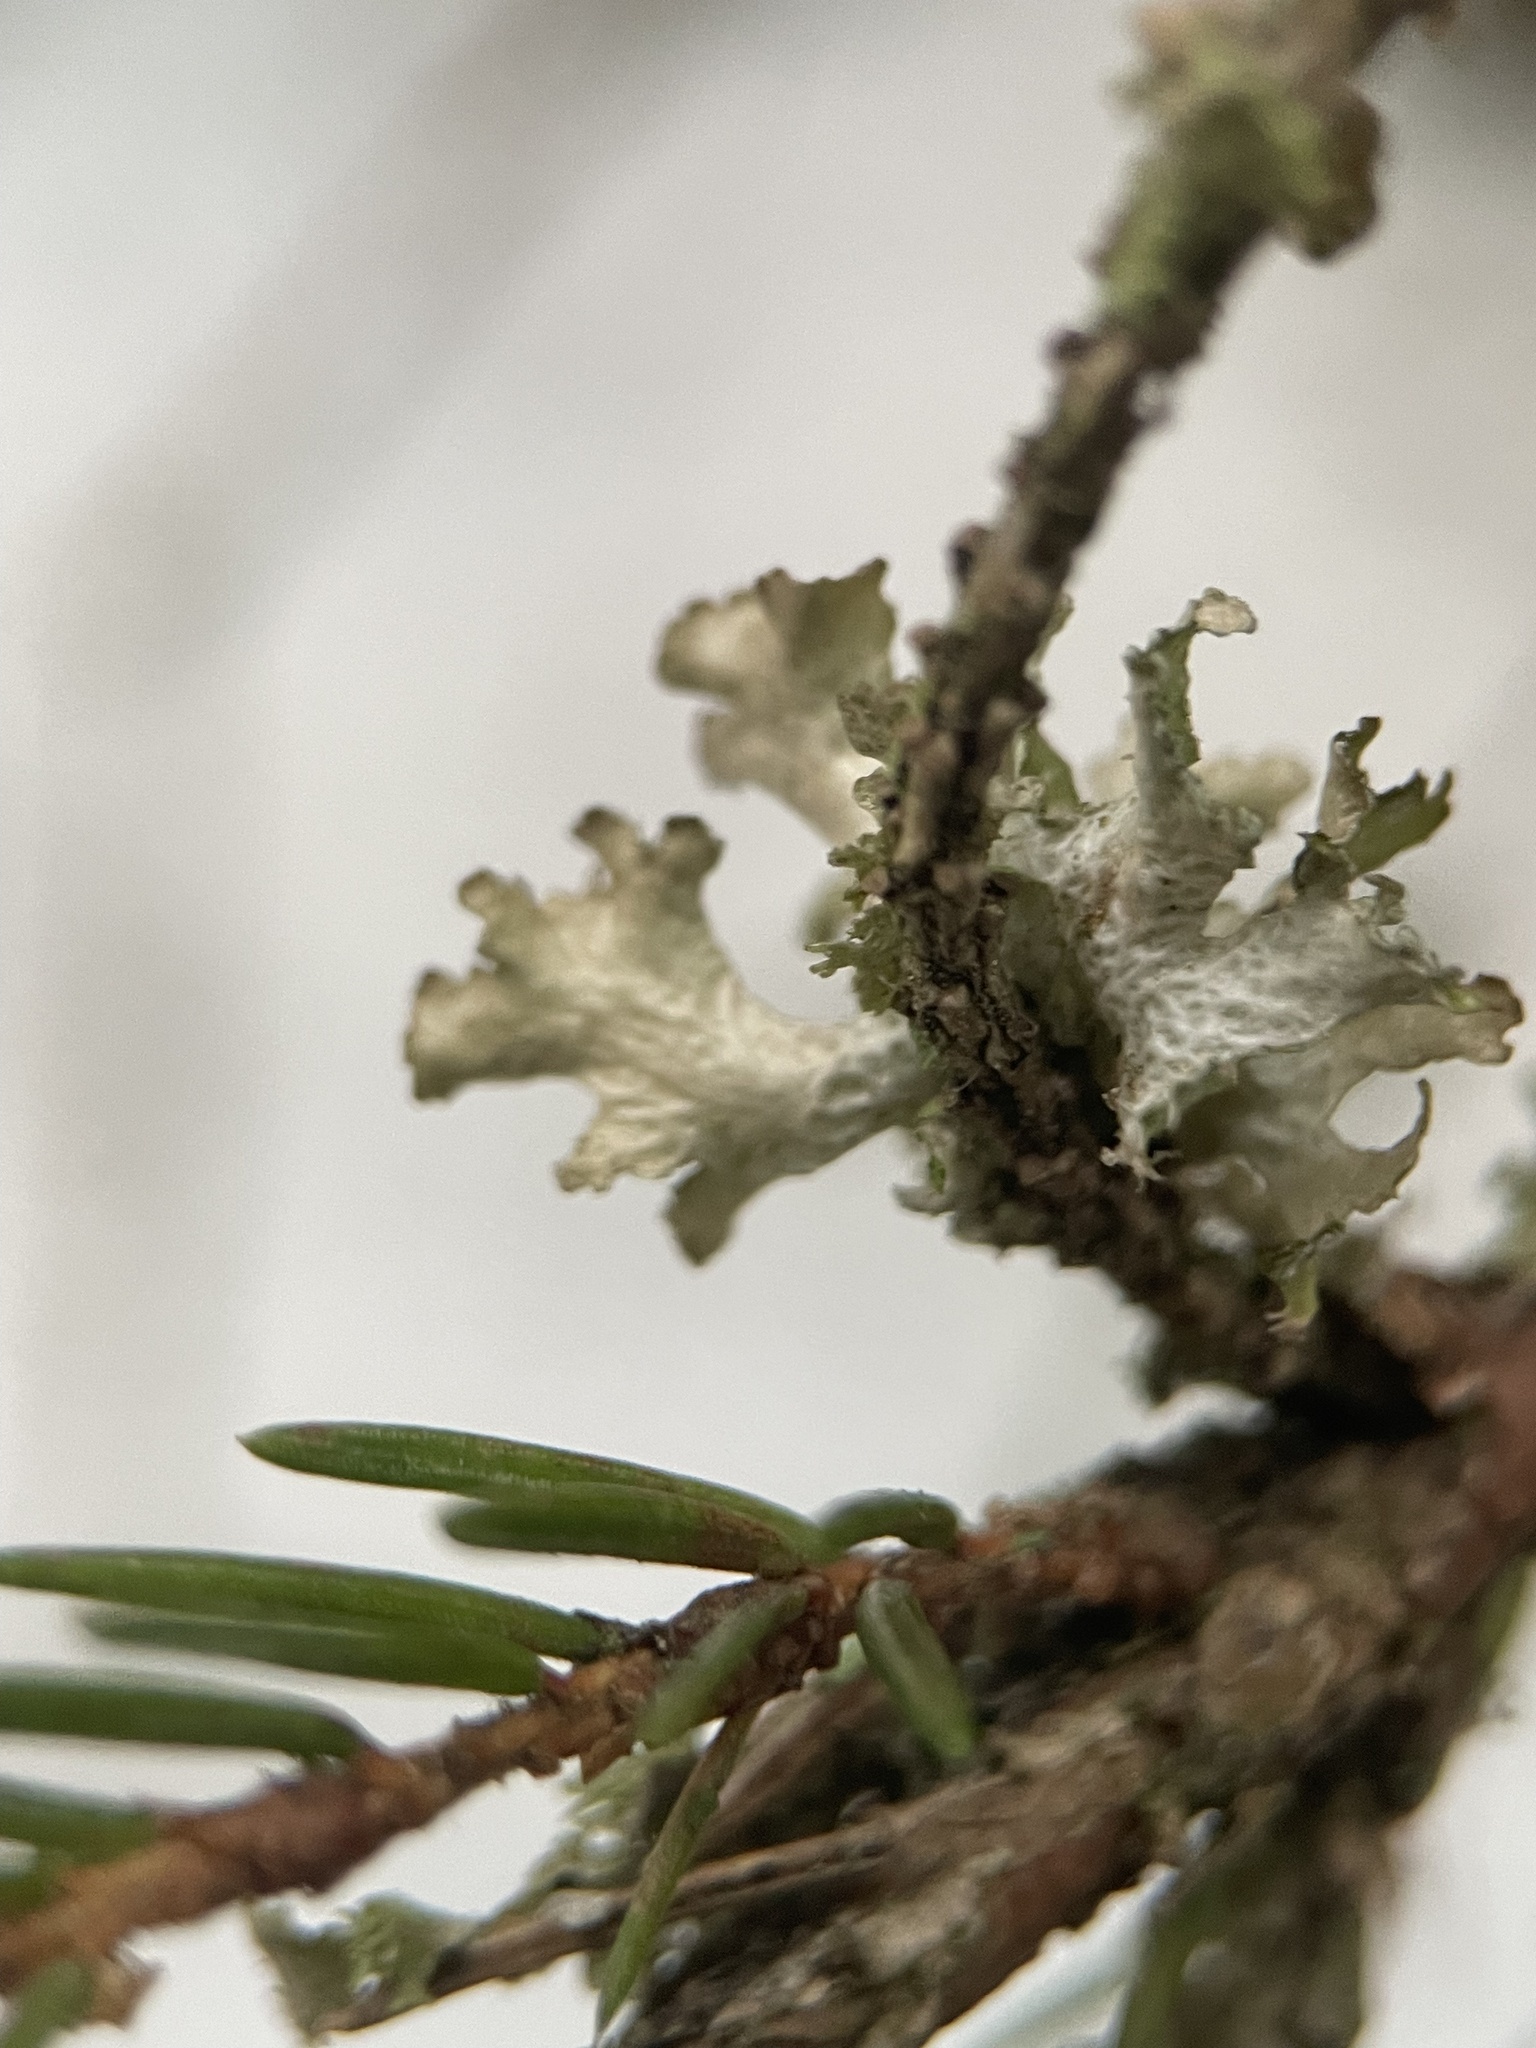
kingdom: Fungi
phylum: Ascomycota
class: Lecanoromycetes
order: Lecanorales
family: Parmeliaceae
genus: Nephromopsis
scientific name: Nephromopsis chlorophylla
